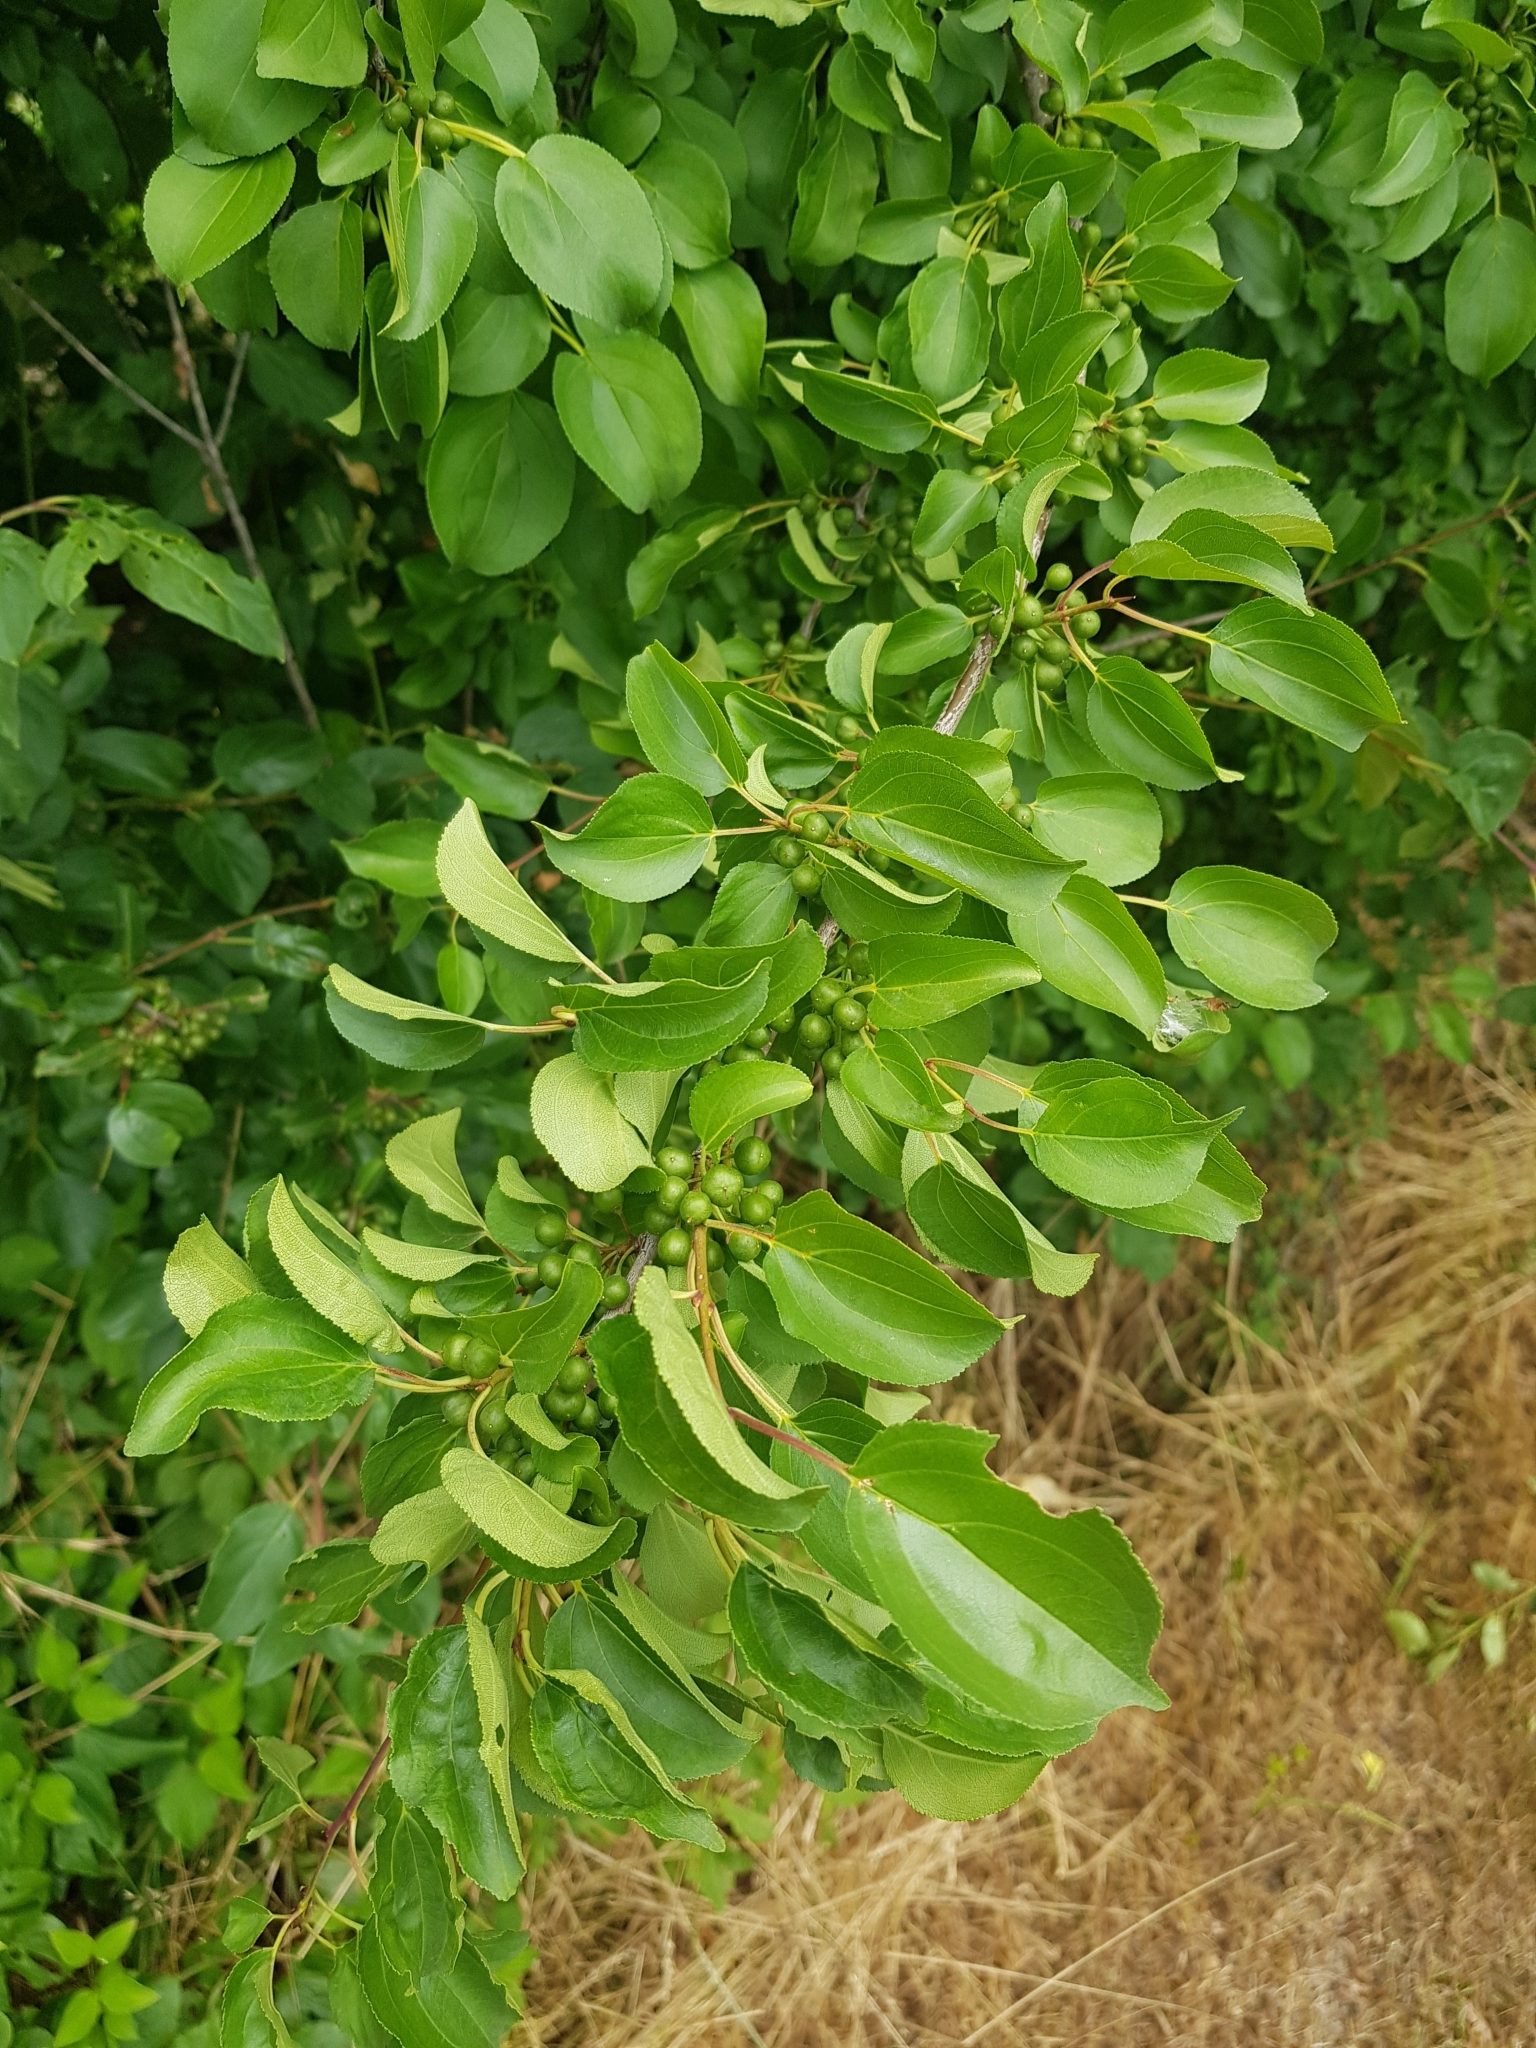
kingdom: Plantae
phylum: Tracheophyta
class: Magnoliopsida
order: Rosales
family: Rhamnaceae
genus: Rhamnus
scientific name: Rhamnus cathartica
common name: Common buckthorn
